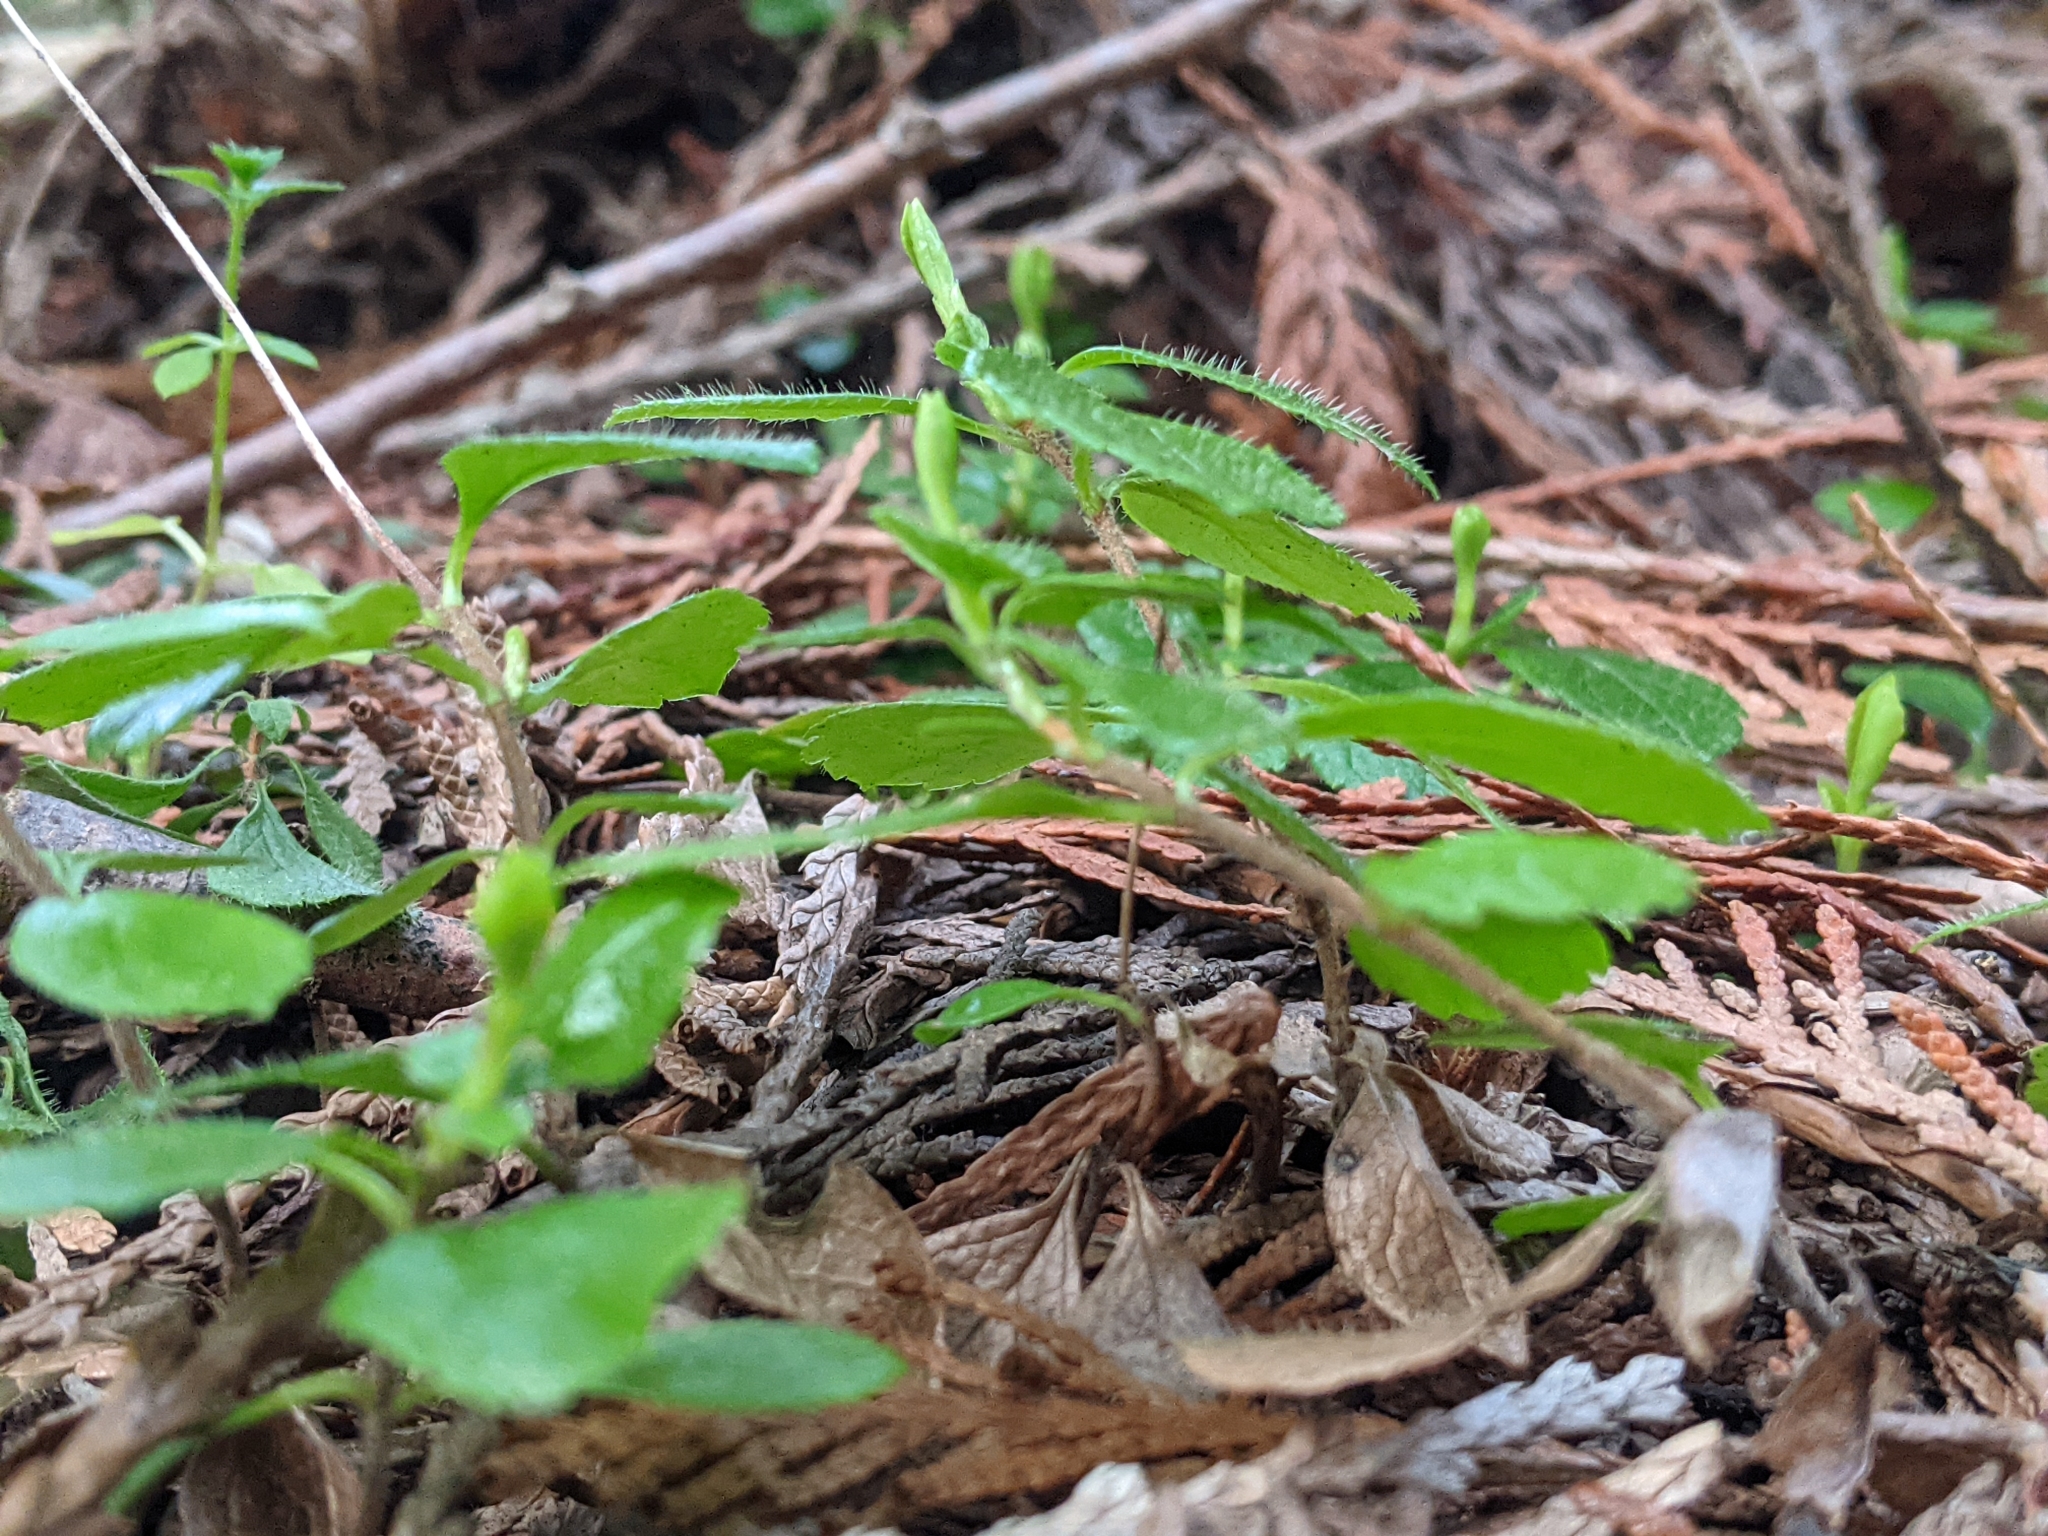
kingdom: Plantae
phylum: Tracheophyta
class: Magnoliopsida
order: Dipsacales
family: Caprifoliaceae
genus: Linnaea
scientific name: Linnaea borealis
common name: Twinflower
